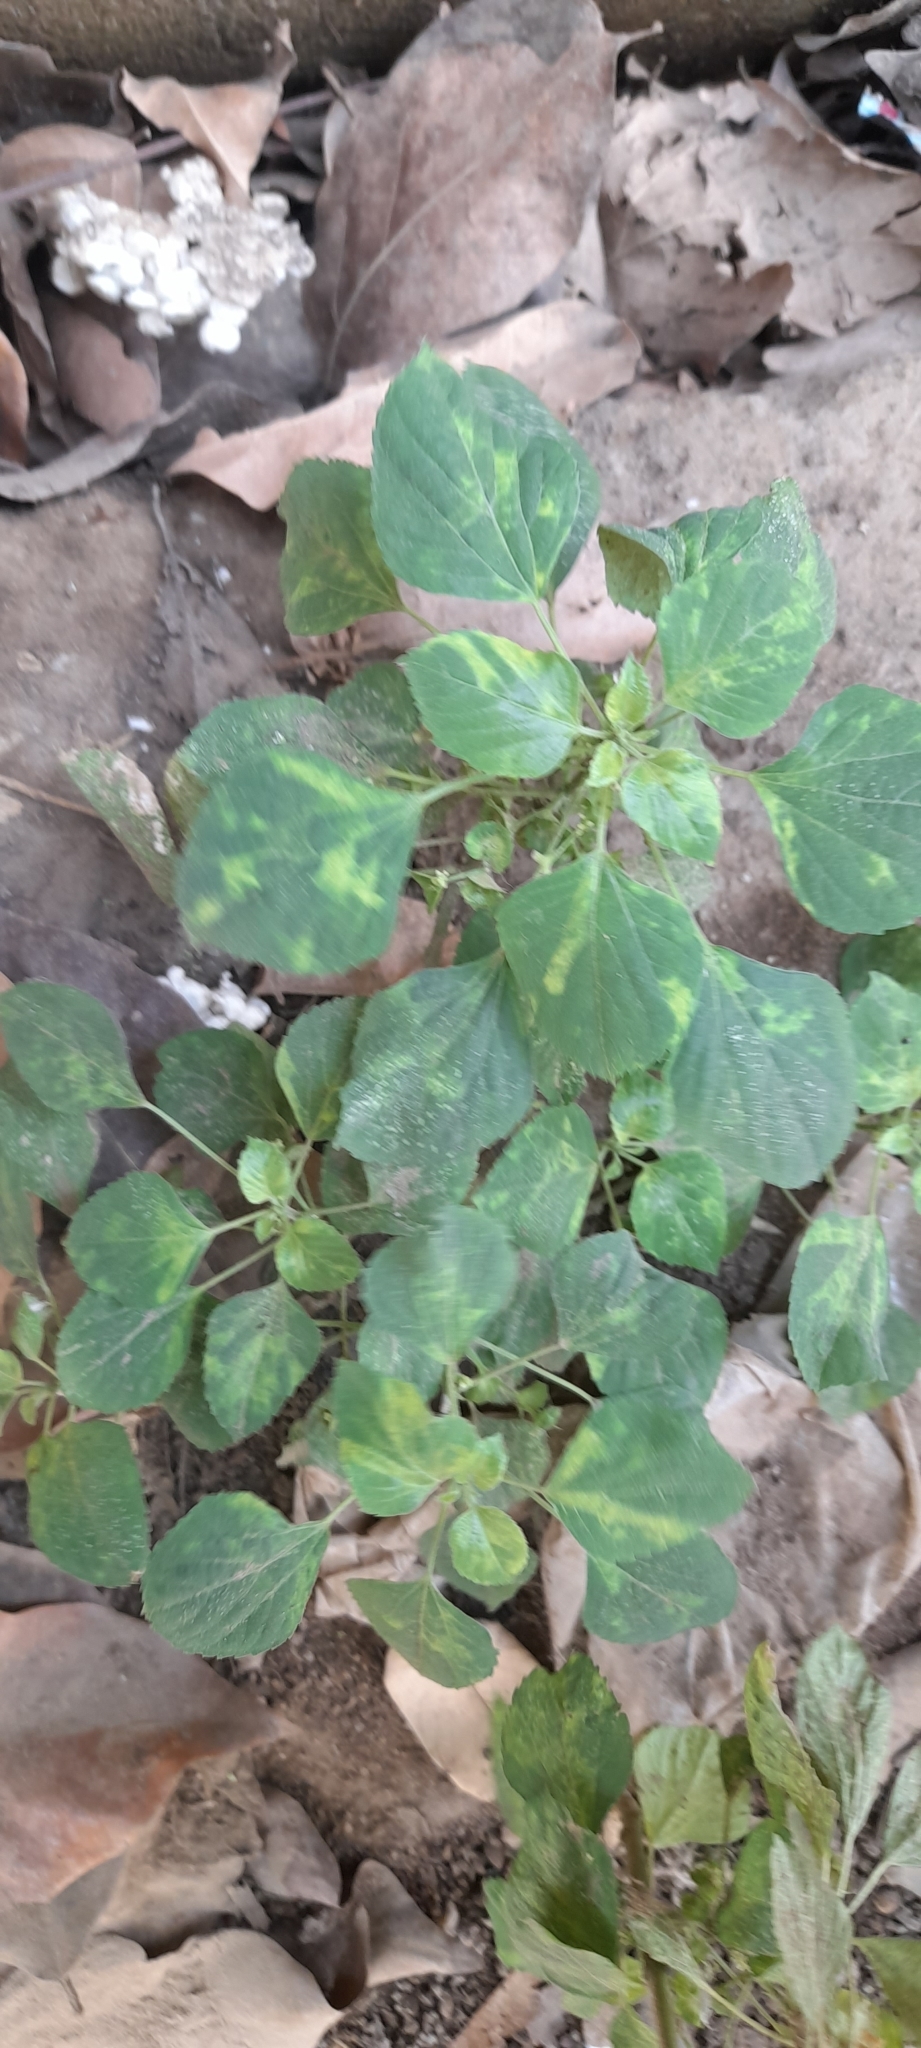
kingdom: Plantae
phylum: Tracheophyta
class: Magnoliopsida
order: Malpighiales
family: Euphorbiaceae
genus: Acalypha
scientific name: Acalypha indica
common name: Indian acalypha
